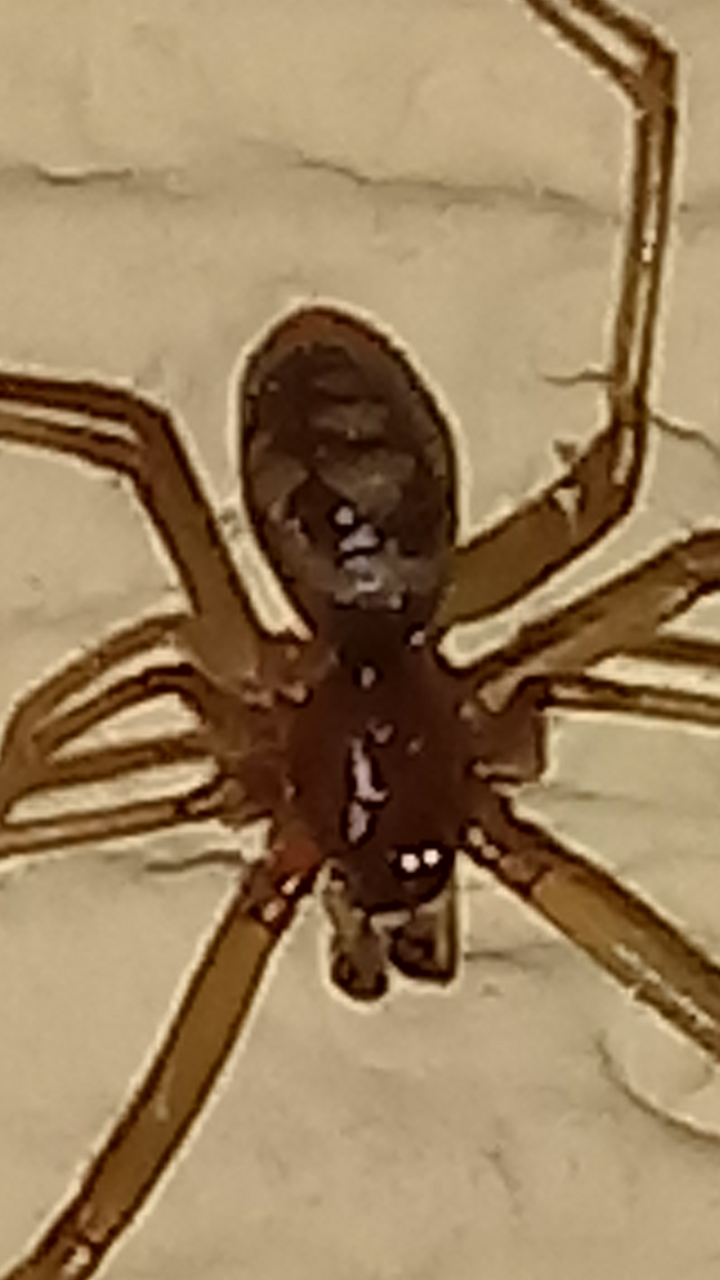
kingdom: Animalia
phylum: Arthropoda
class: Arachnida
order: Araneae
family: Theridiidae
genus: Steatoda
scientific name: Steatoda grossa
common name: False black widow
